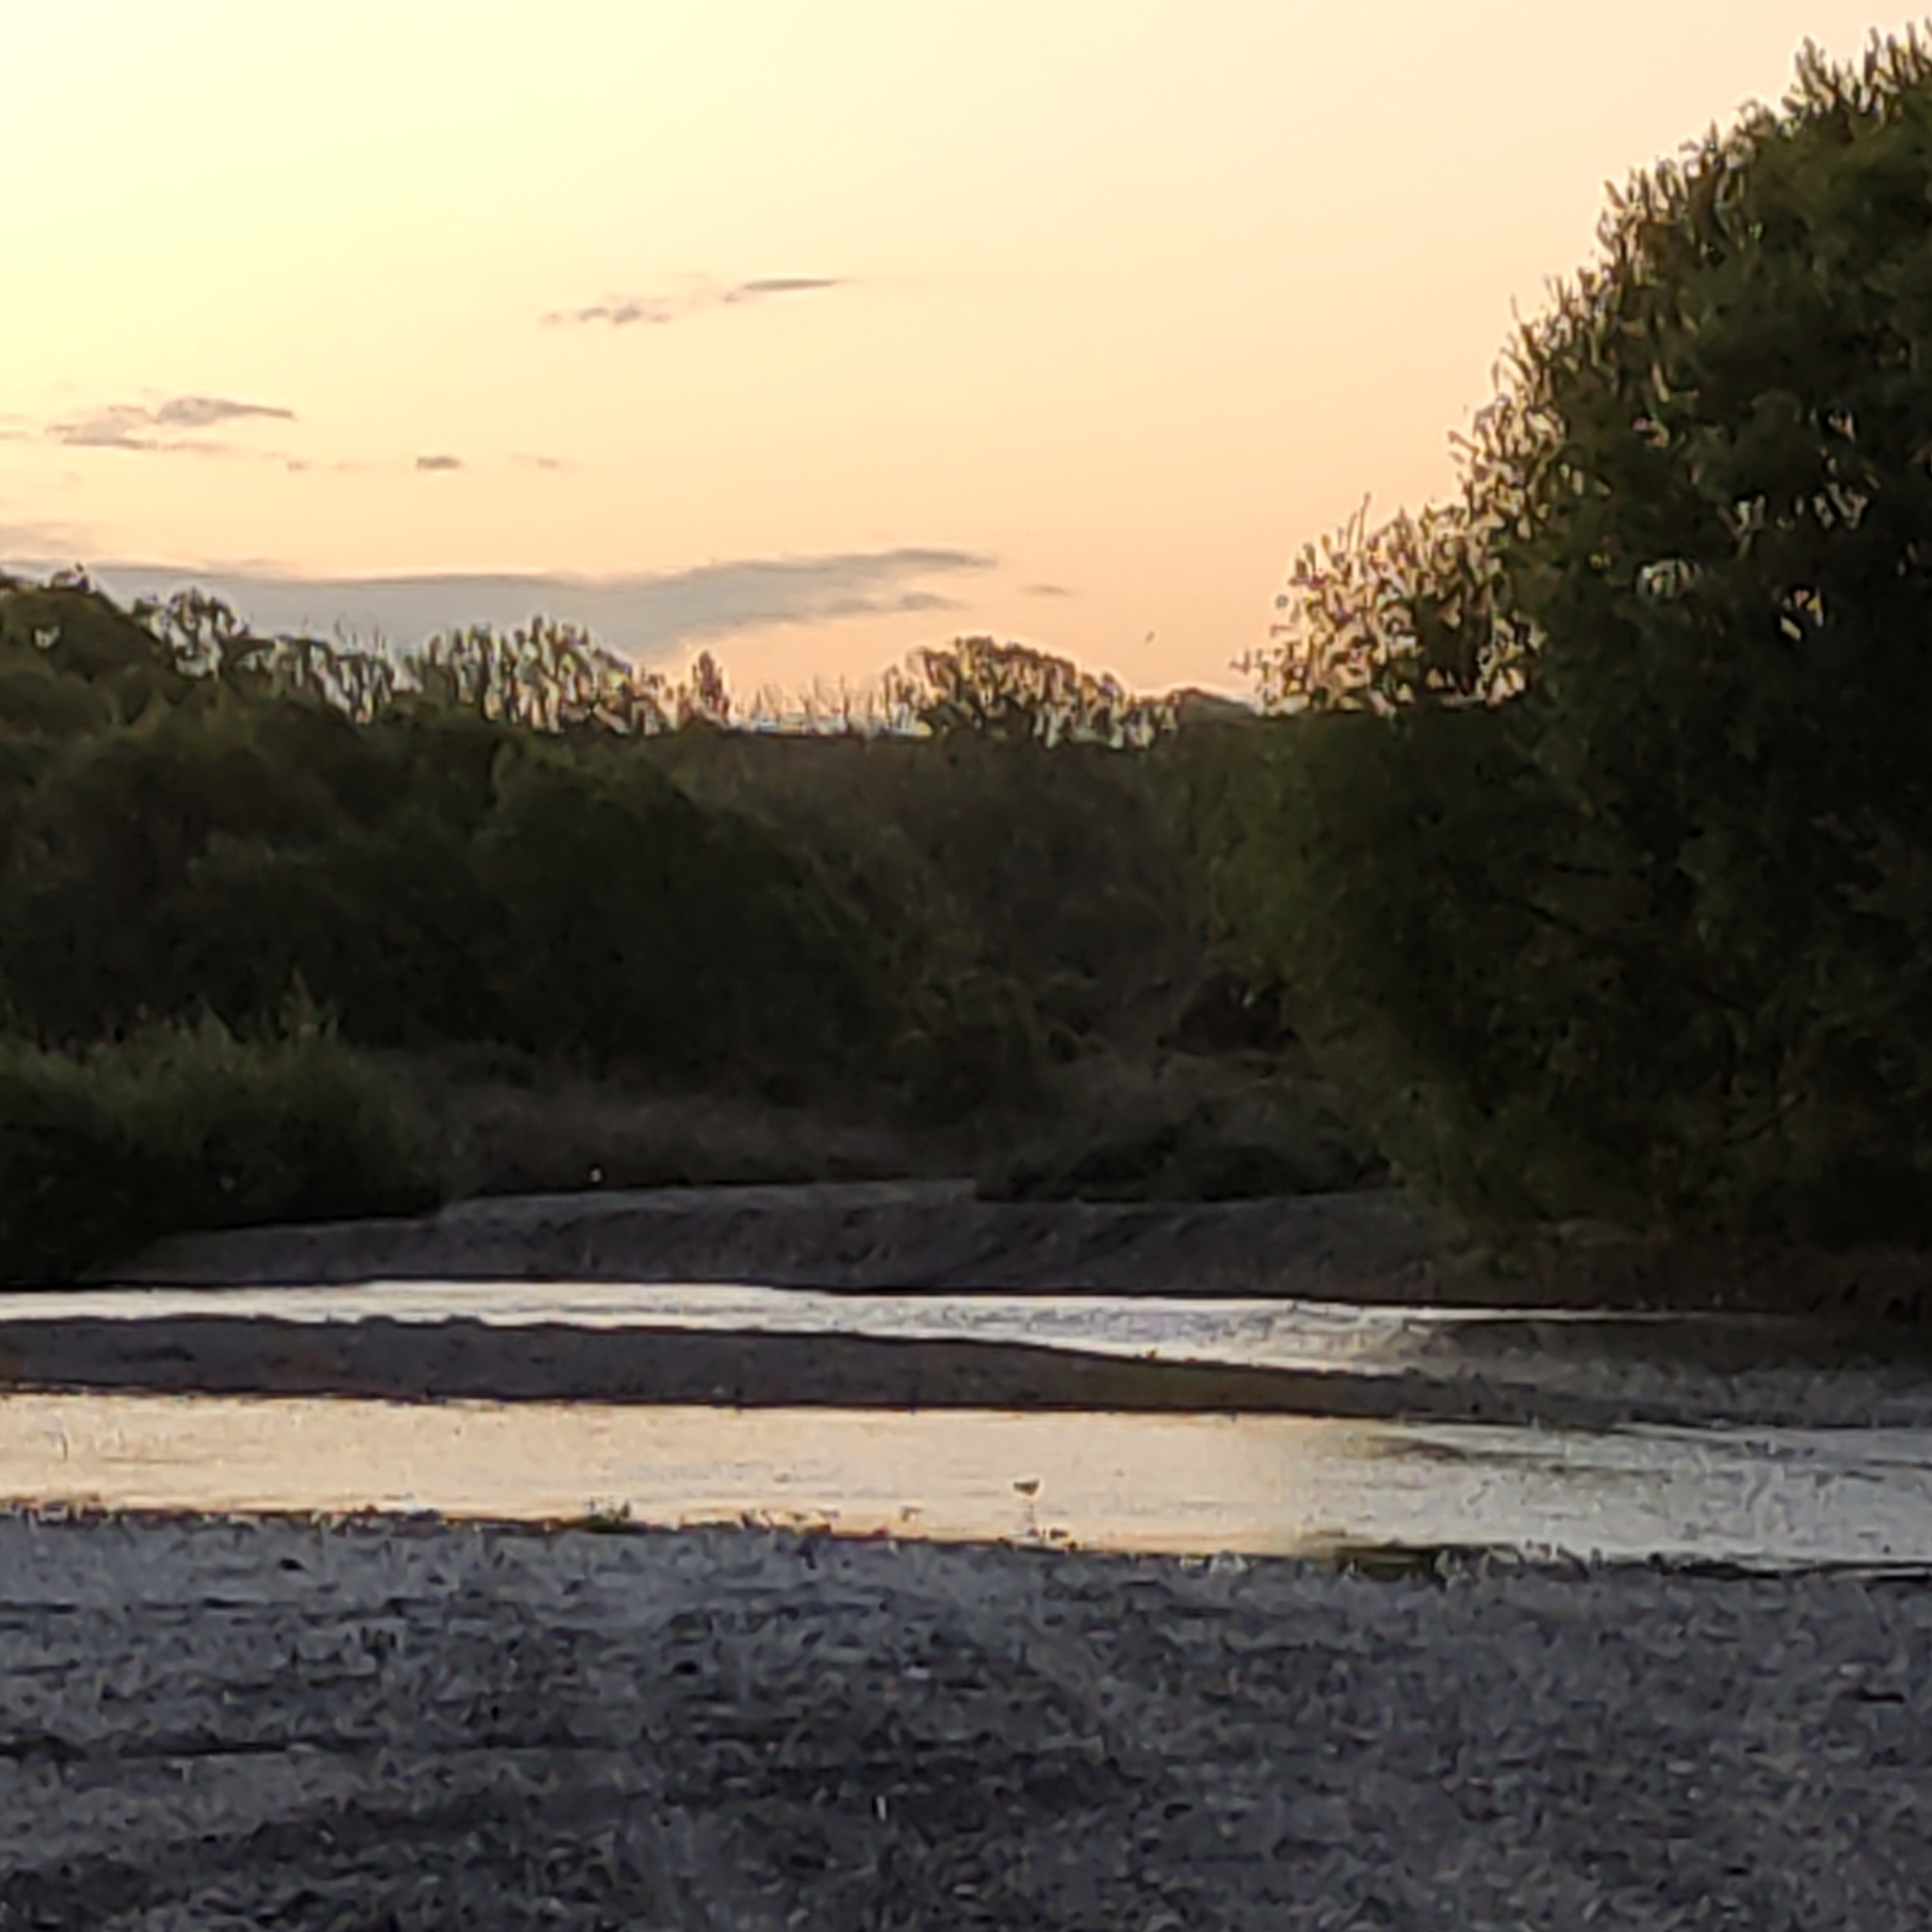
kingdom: Animalia
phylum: Chordata
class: Aves
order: Charadriiformes
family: Recurvirostridae
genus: Himantopus
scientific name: Himantopus leucocephalus
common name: White-headed stilt
